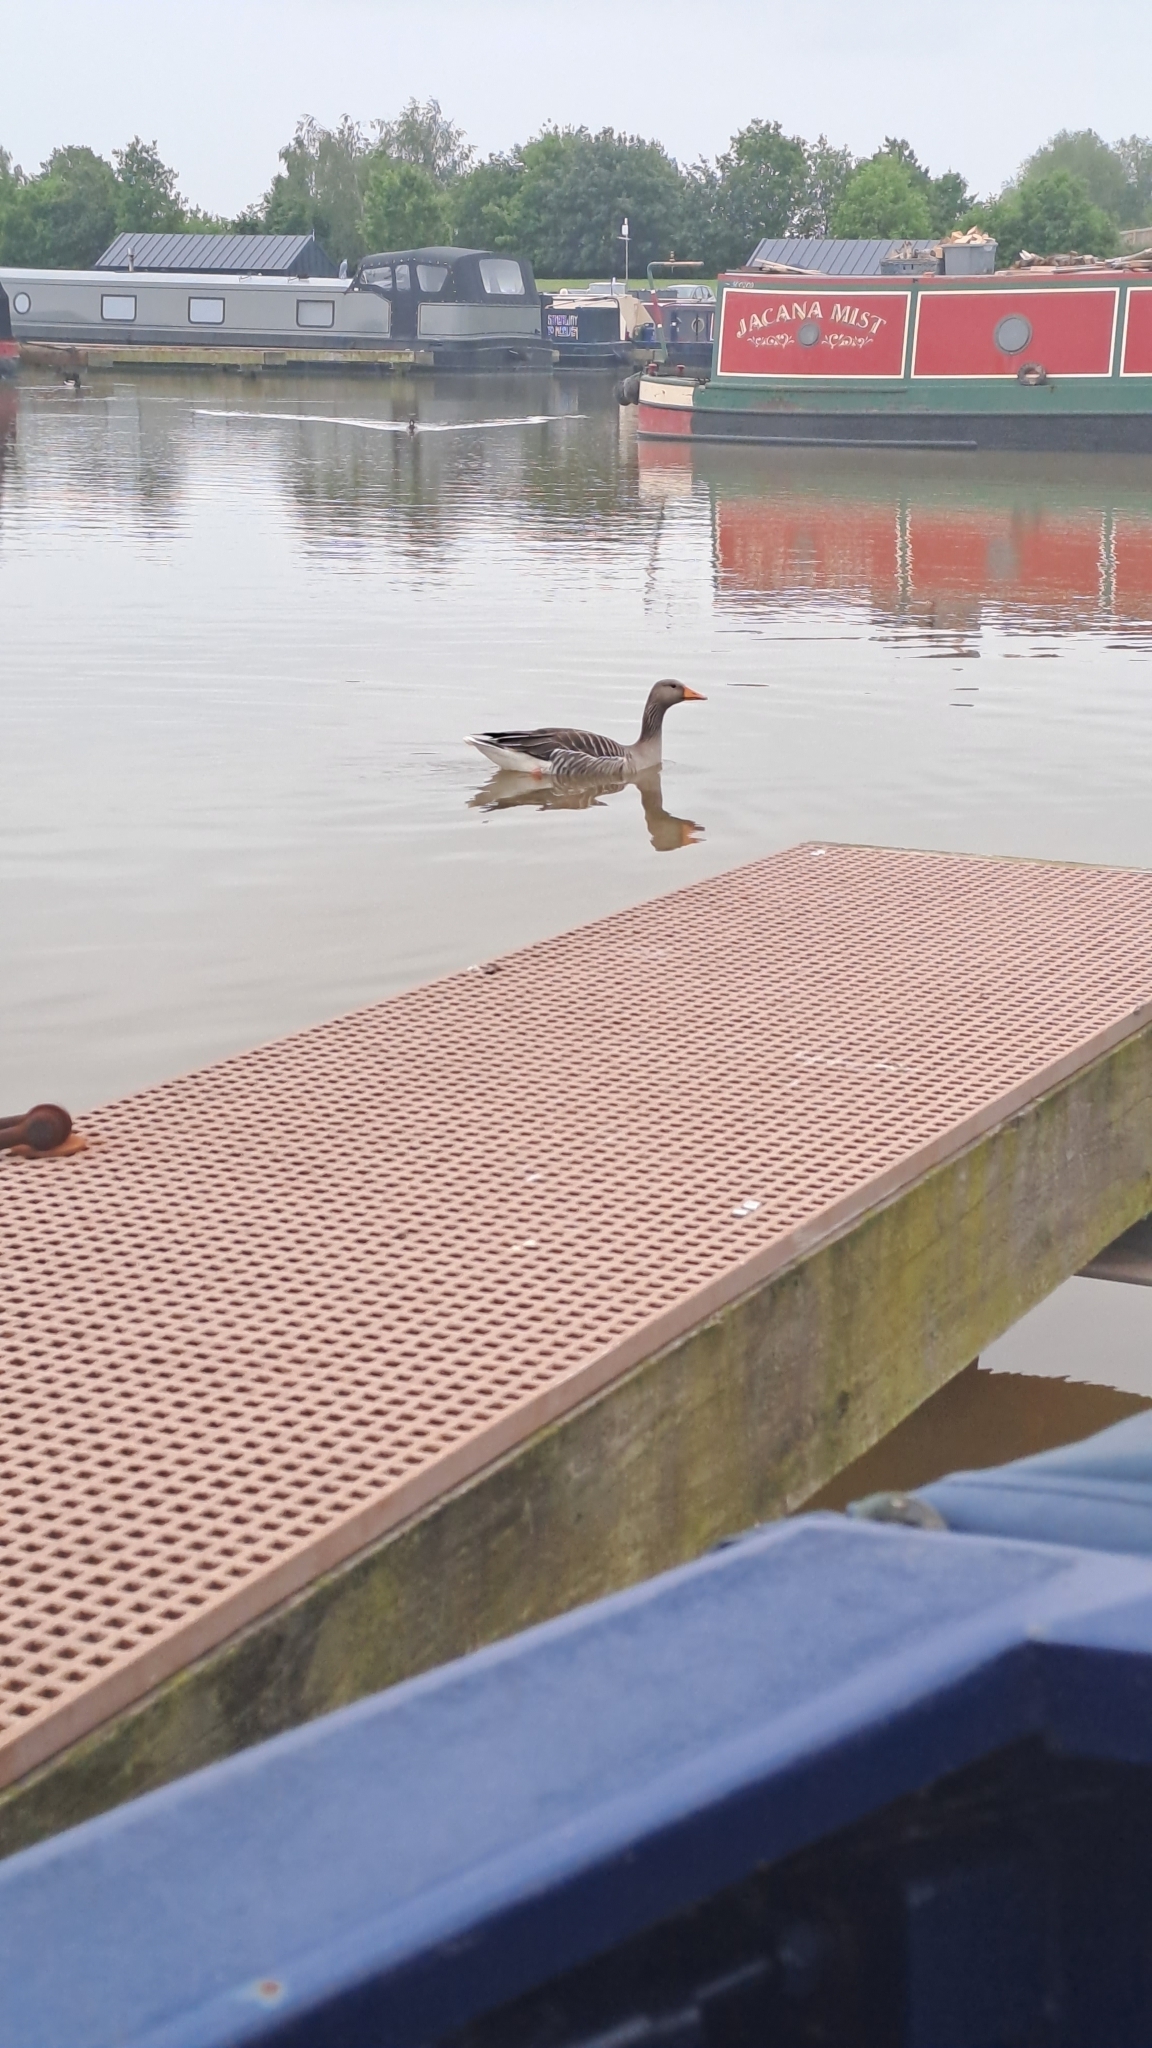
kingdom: Animalia
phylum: Chordata
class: Aves
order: Anseriformes
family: Anatidae
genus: Anser
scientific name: Anser anser
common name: Greylag goose
